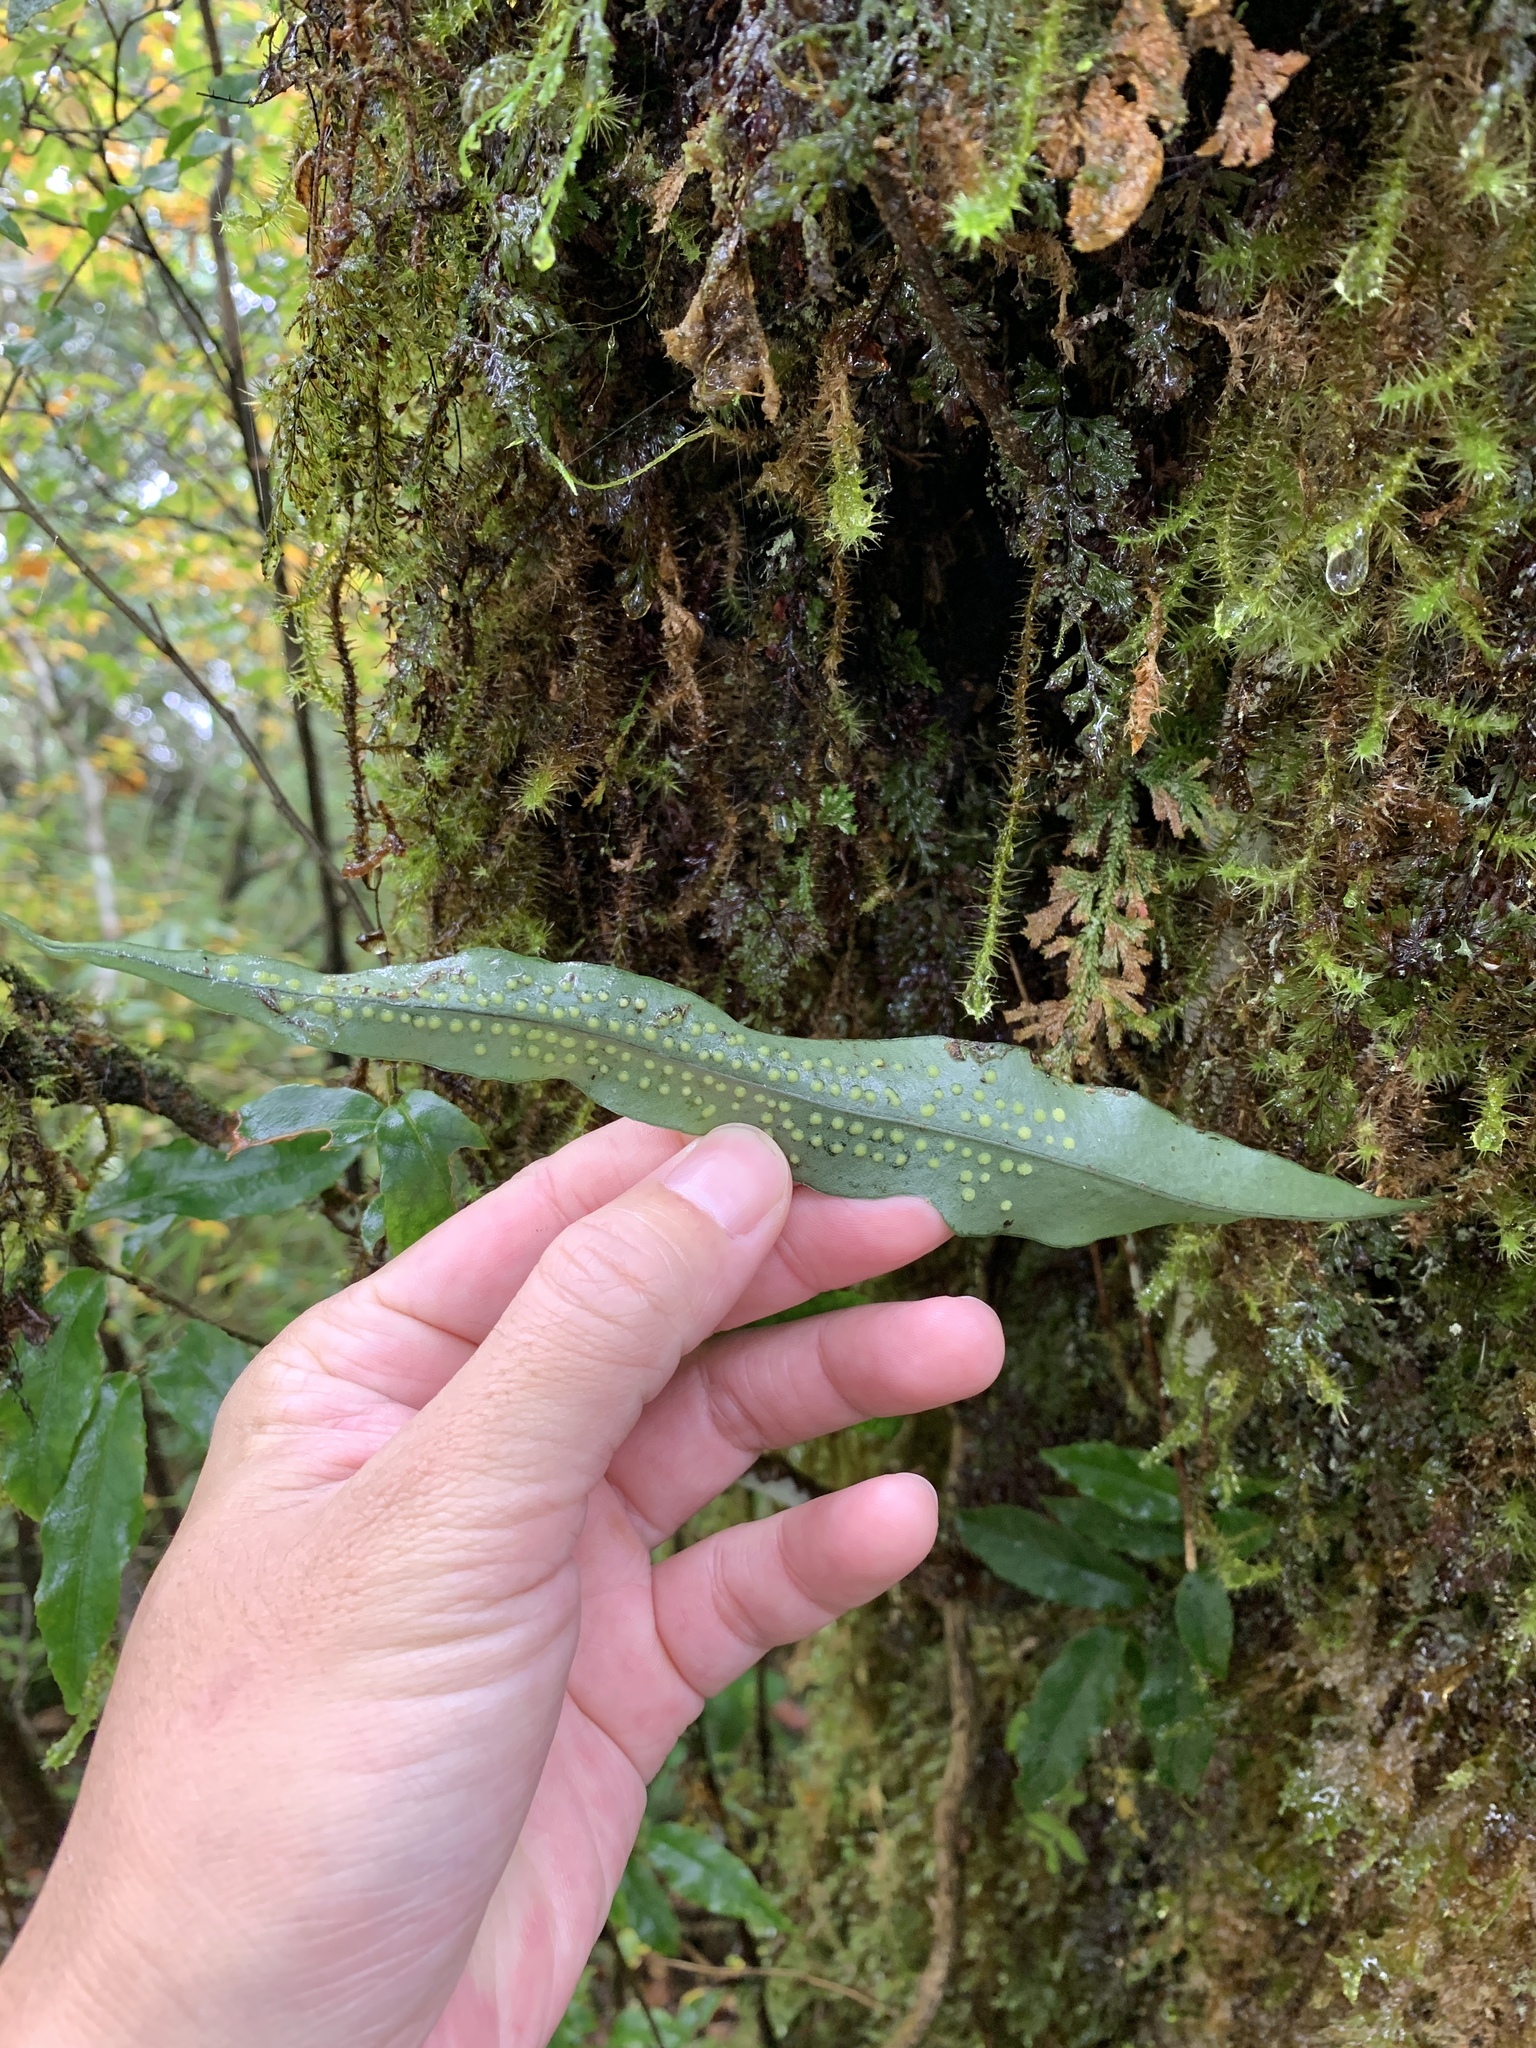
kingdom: Plantae
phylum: Tracheophyta
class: Polypodiopsida
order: Polypodiales
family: Polypodiaceae
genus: Lepisorus
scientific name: Lepisorus superficialis
